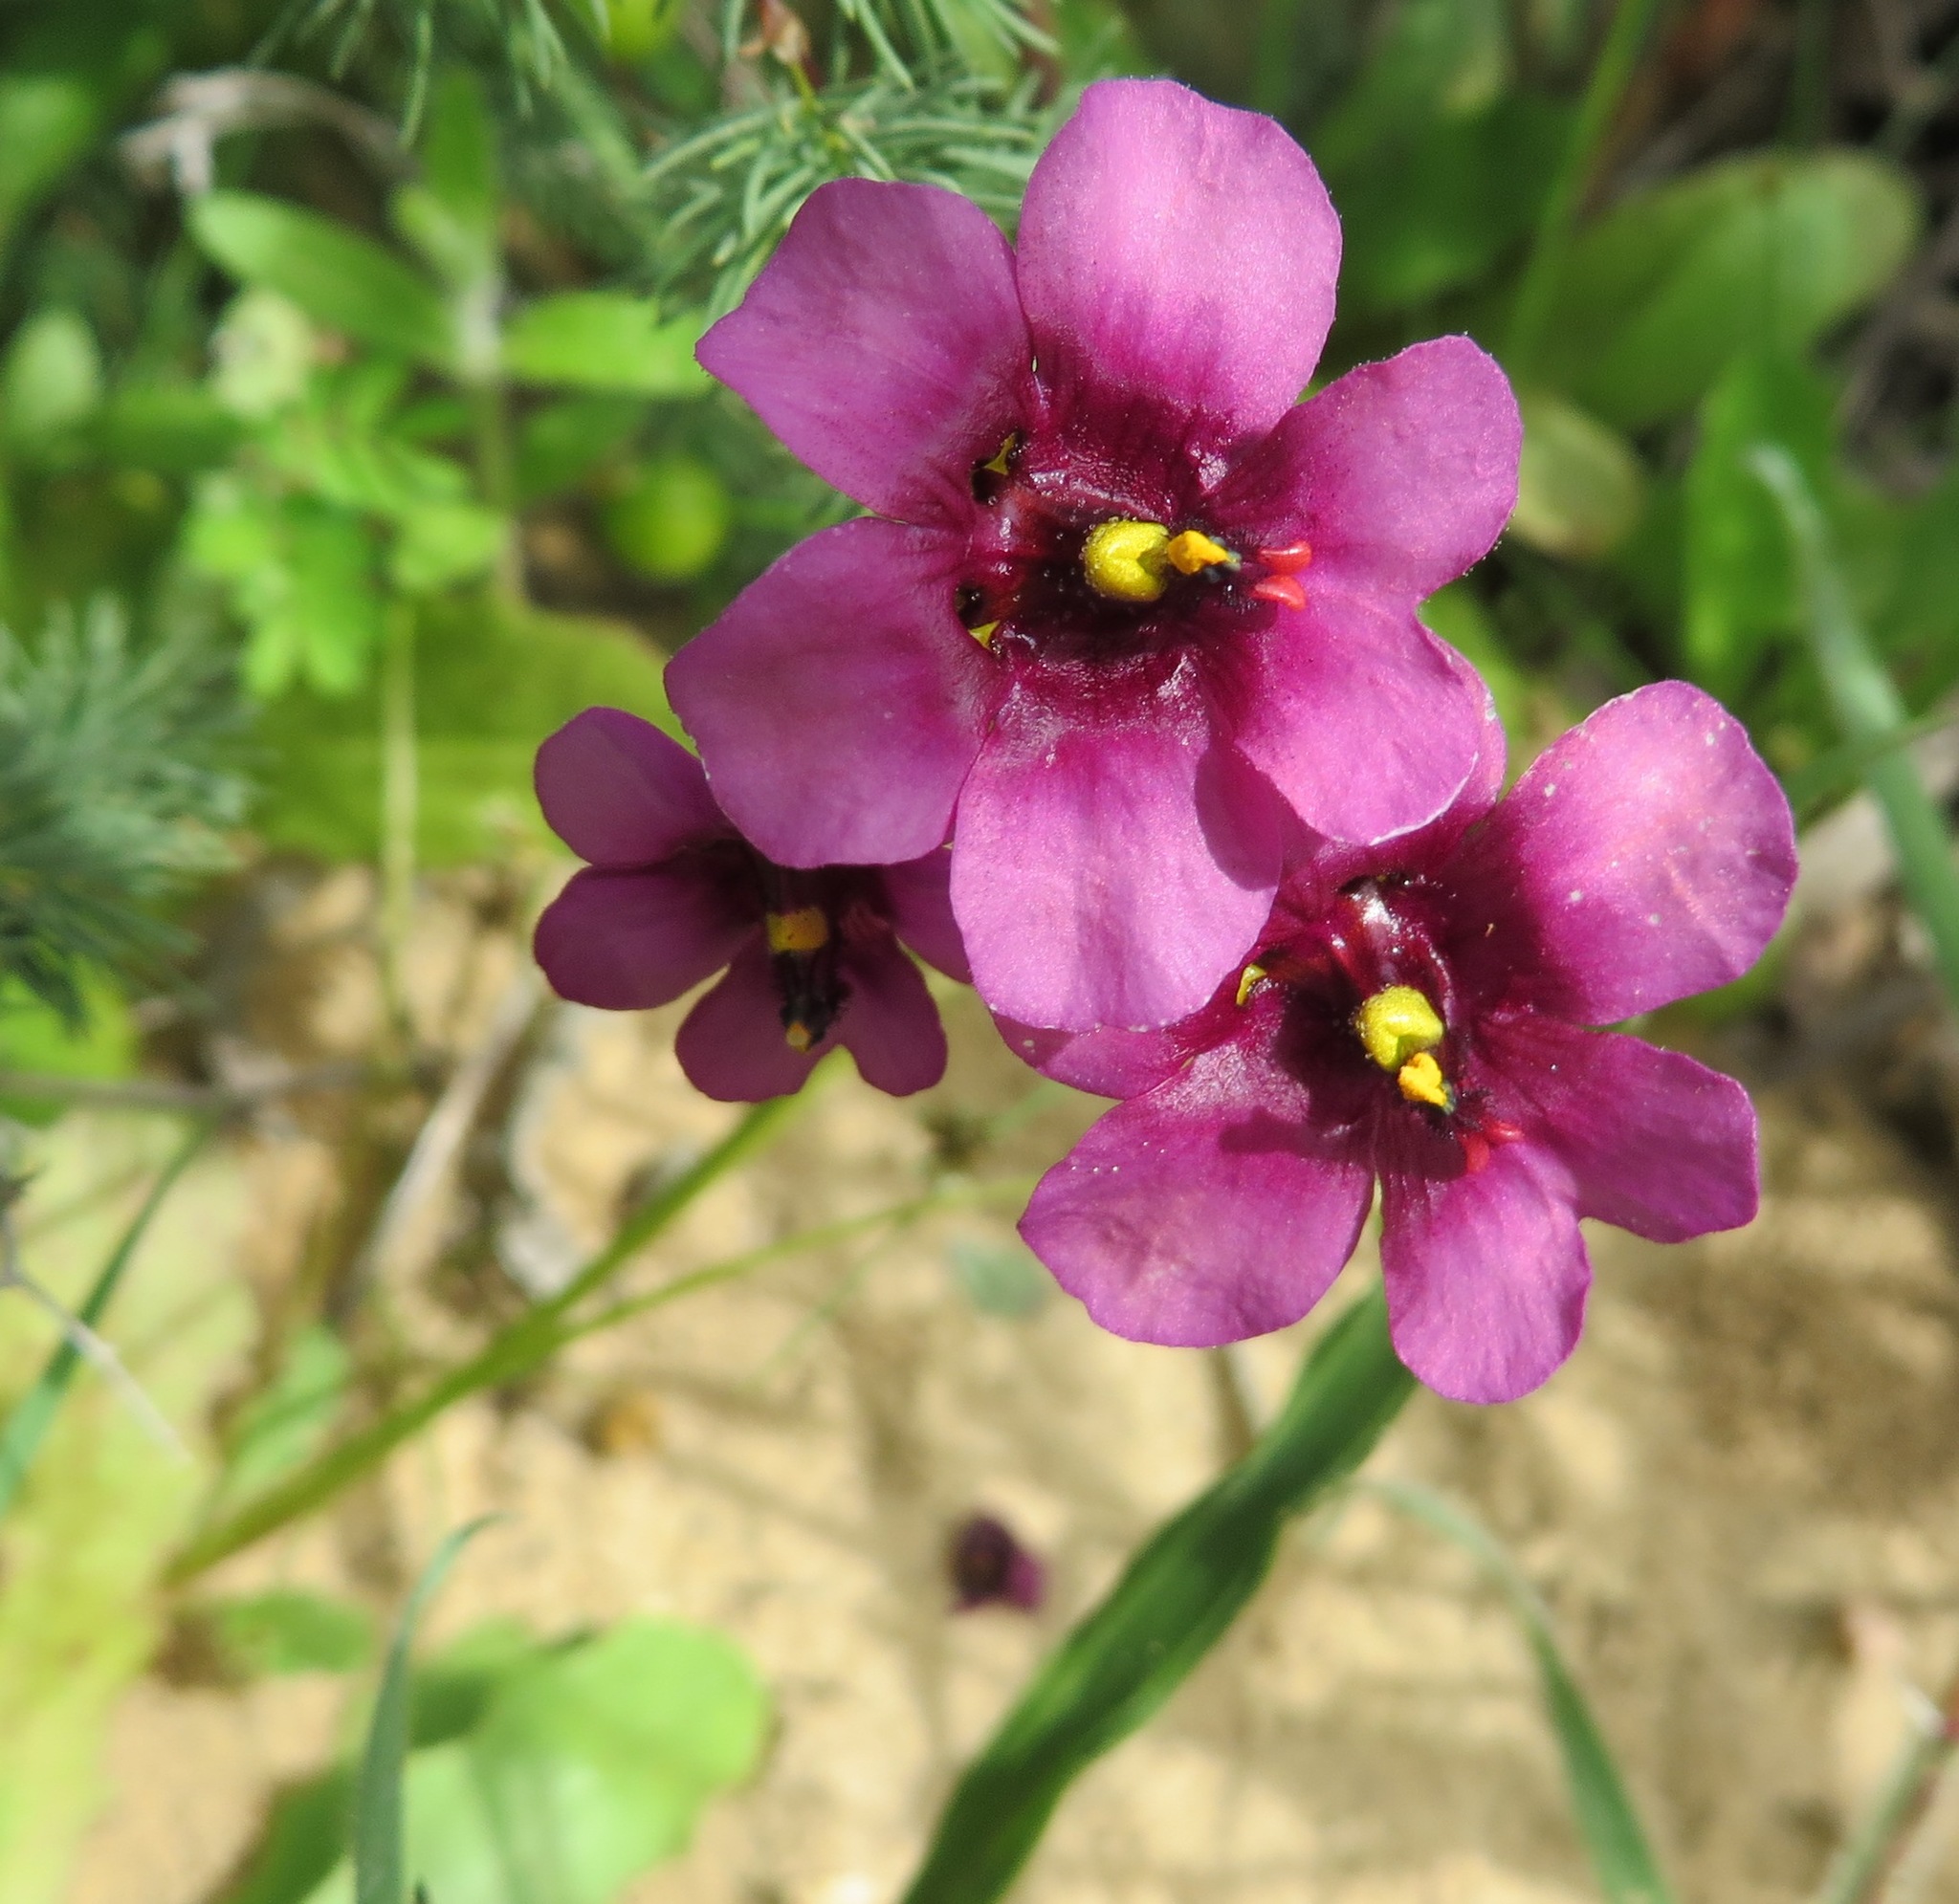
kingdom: Plantae
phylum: Tracheophyta
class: Magnoliopsida
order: Lamiales
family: Scrophulariaceae
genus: Diascia
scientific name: Diascia capensis
